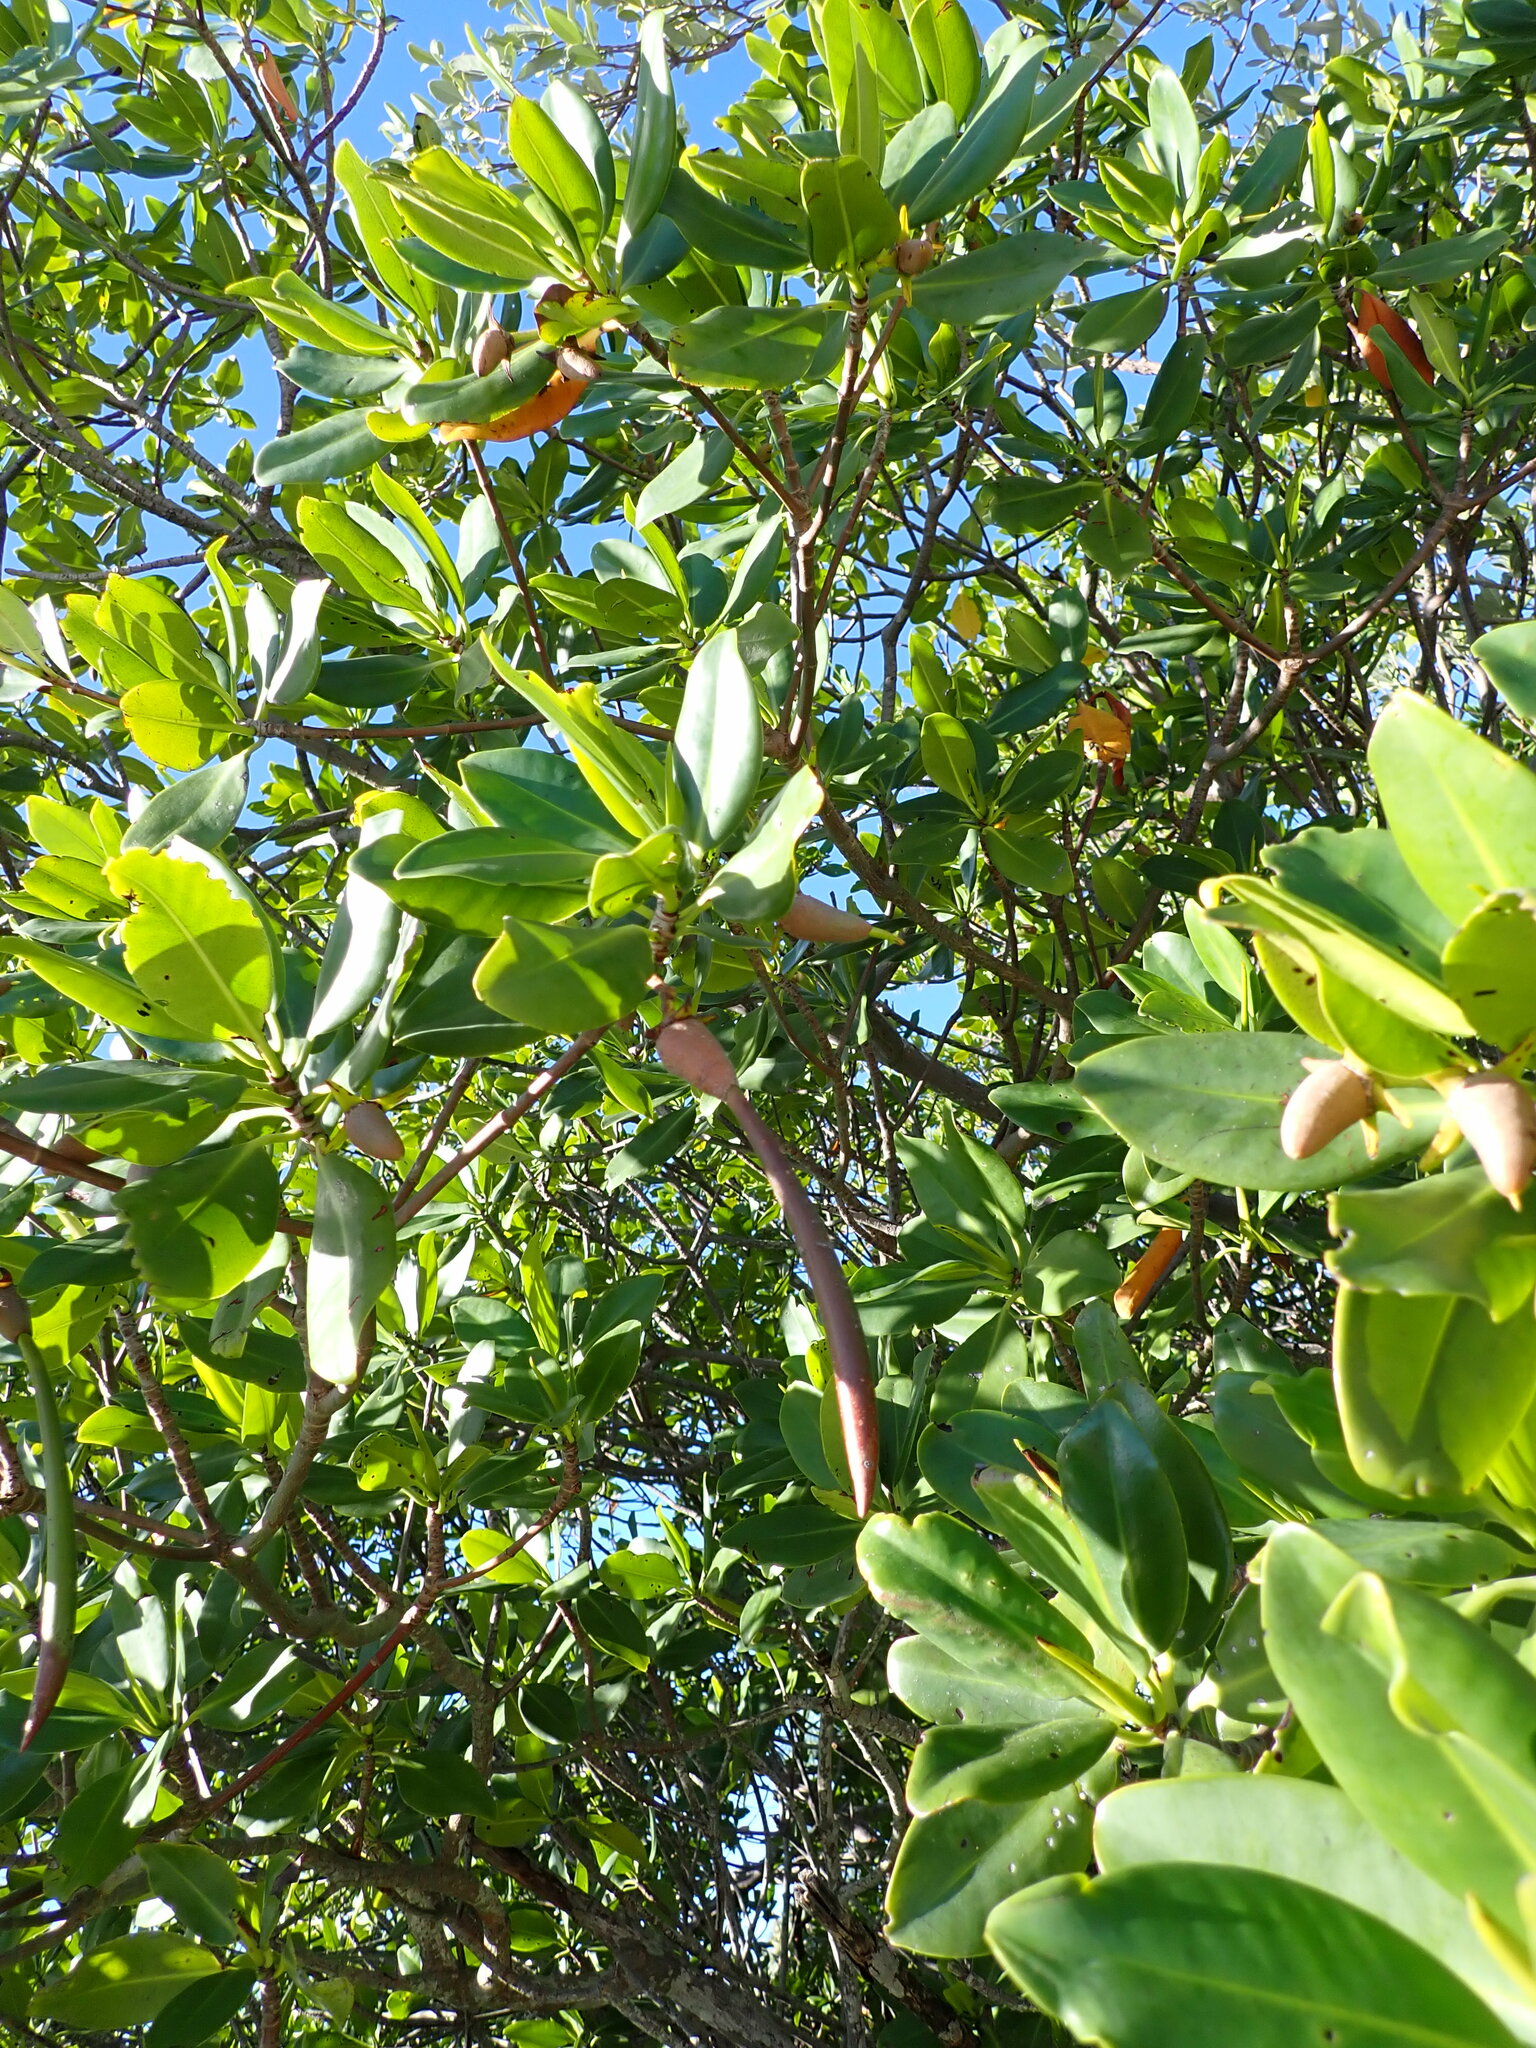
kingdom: Plantae
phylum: Tracheophyta
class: Magnoliopsida
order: Malpighiales
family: Rhizophoraceae
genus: Rhizophora
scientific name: Rhizophora mangle
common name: Red mangrove
